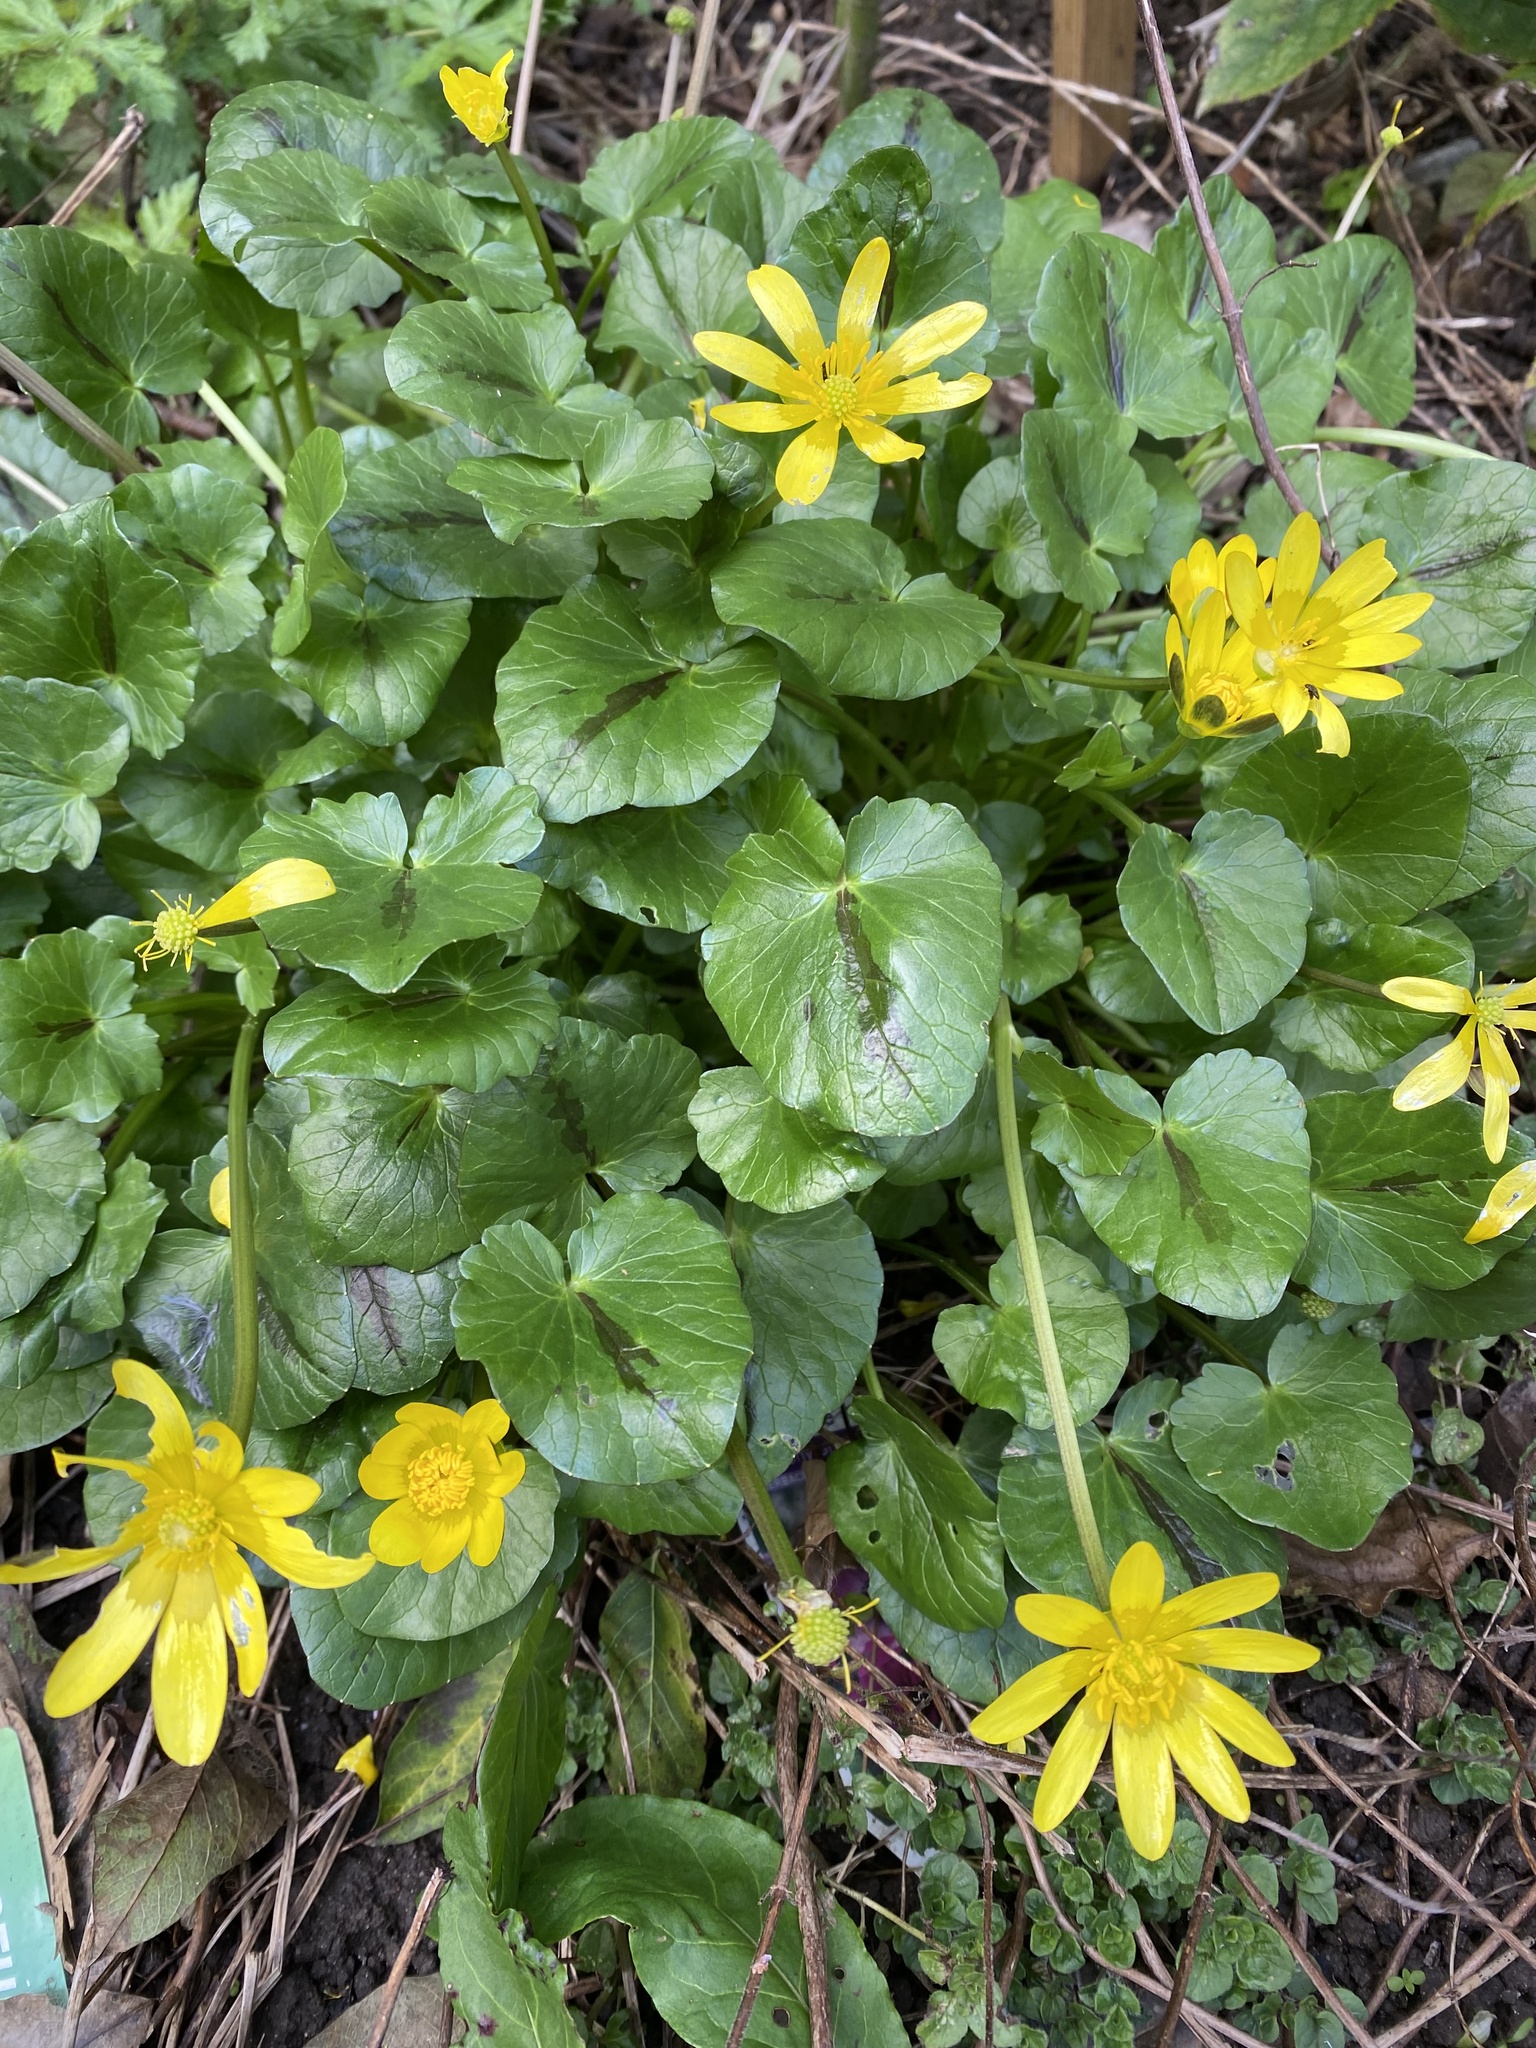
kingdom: Plantae
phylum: Tracheophyta
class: Magnoliopsida
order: Ranunculales
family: Ranunculaceae
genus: Ficaria
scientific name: Ficaria verna
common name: Lesser celandine
